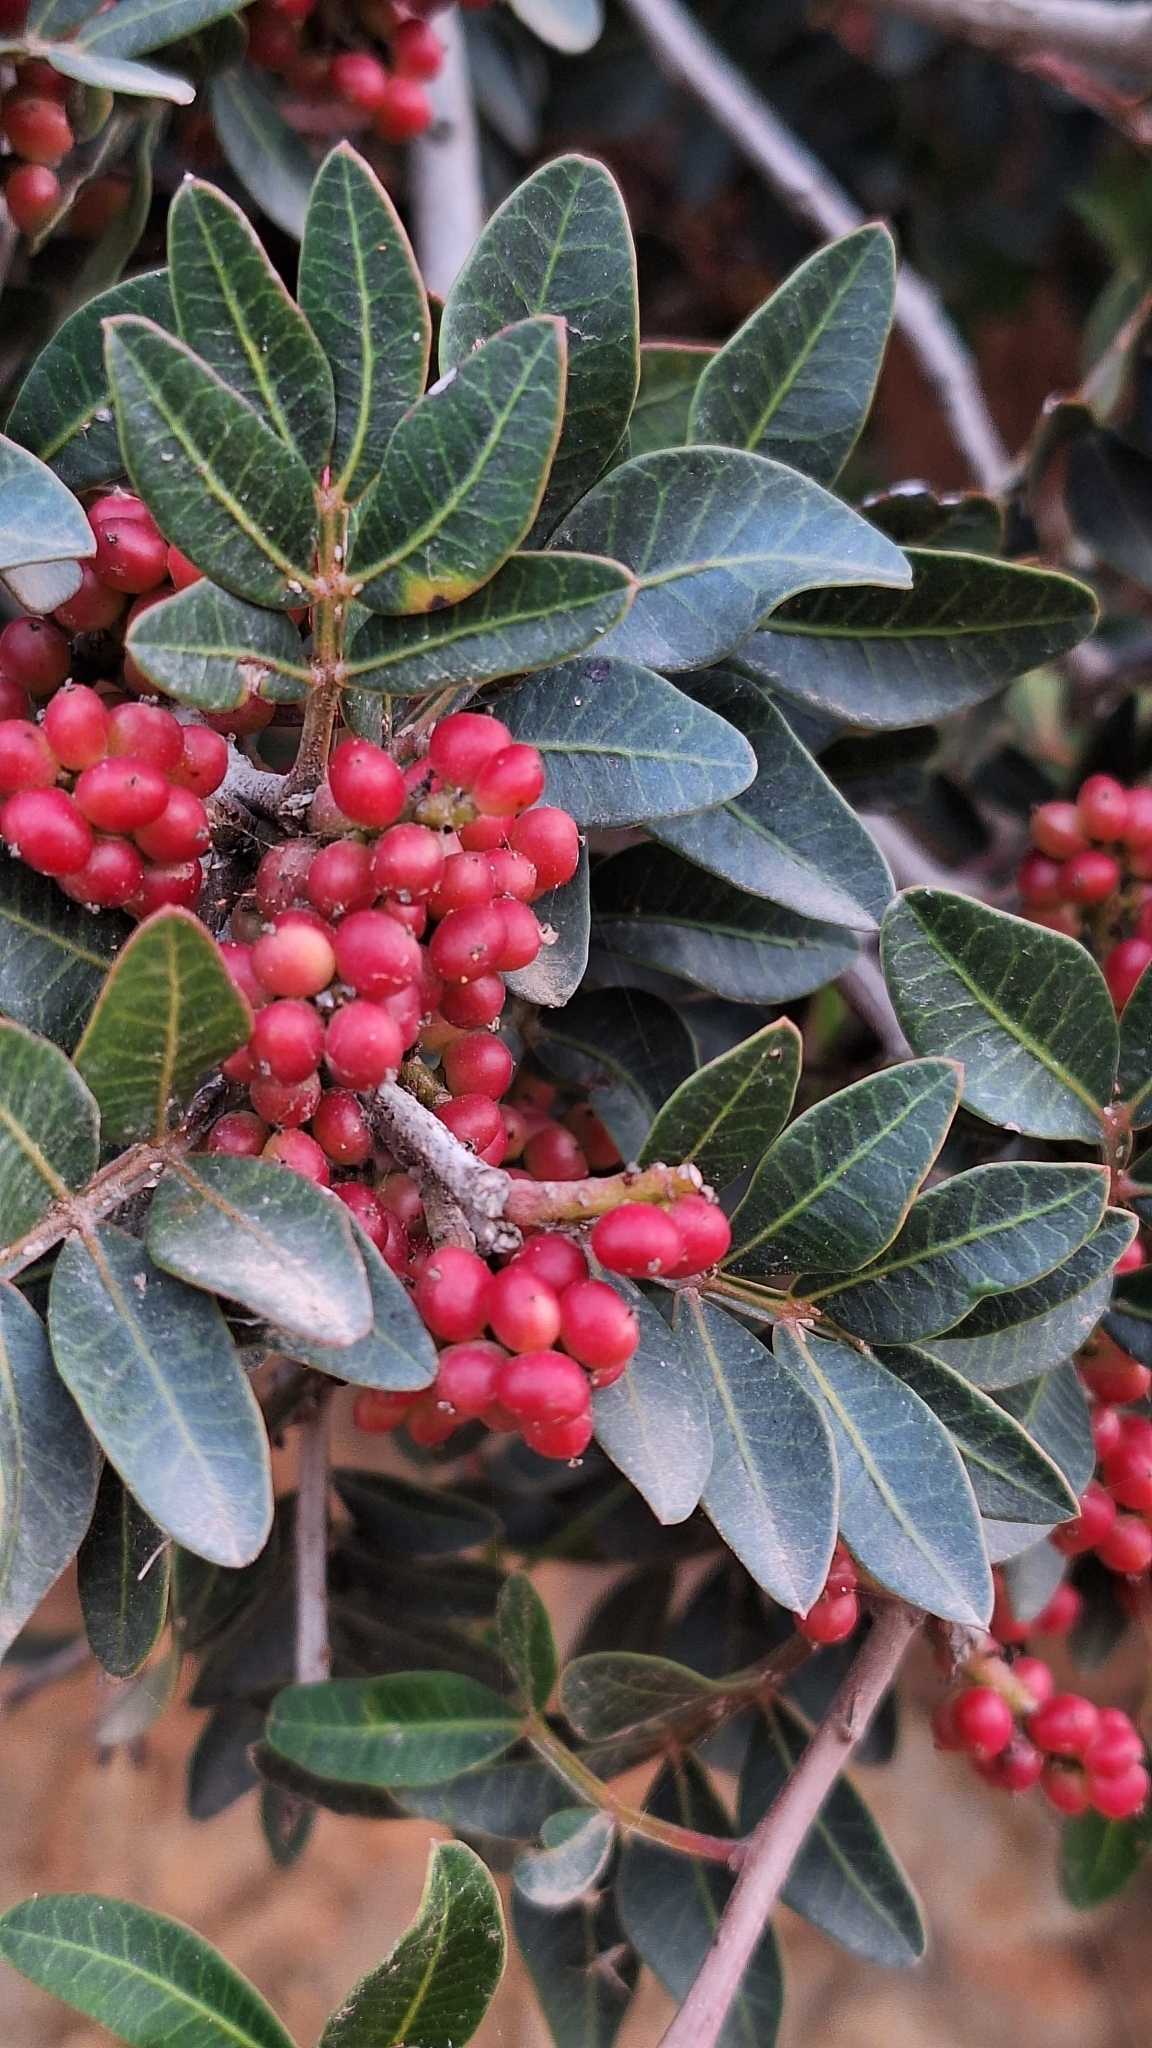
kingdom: Plantae
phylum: Tracheophyta
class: Magnoliopsida
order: Sapindales
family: Anacardiaceae
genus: Pistacia
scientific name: Pistacia lentiscus
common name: Lentisk
